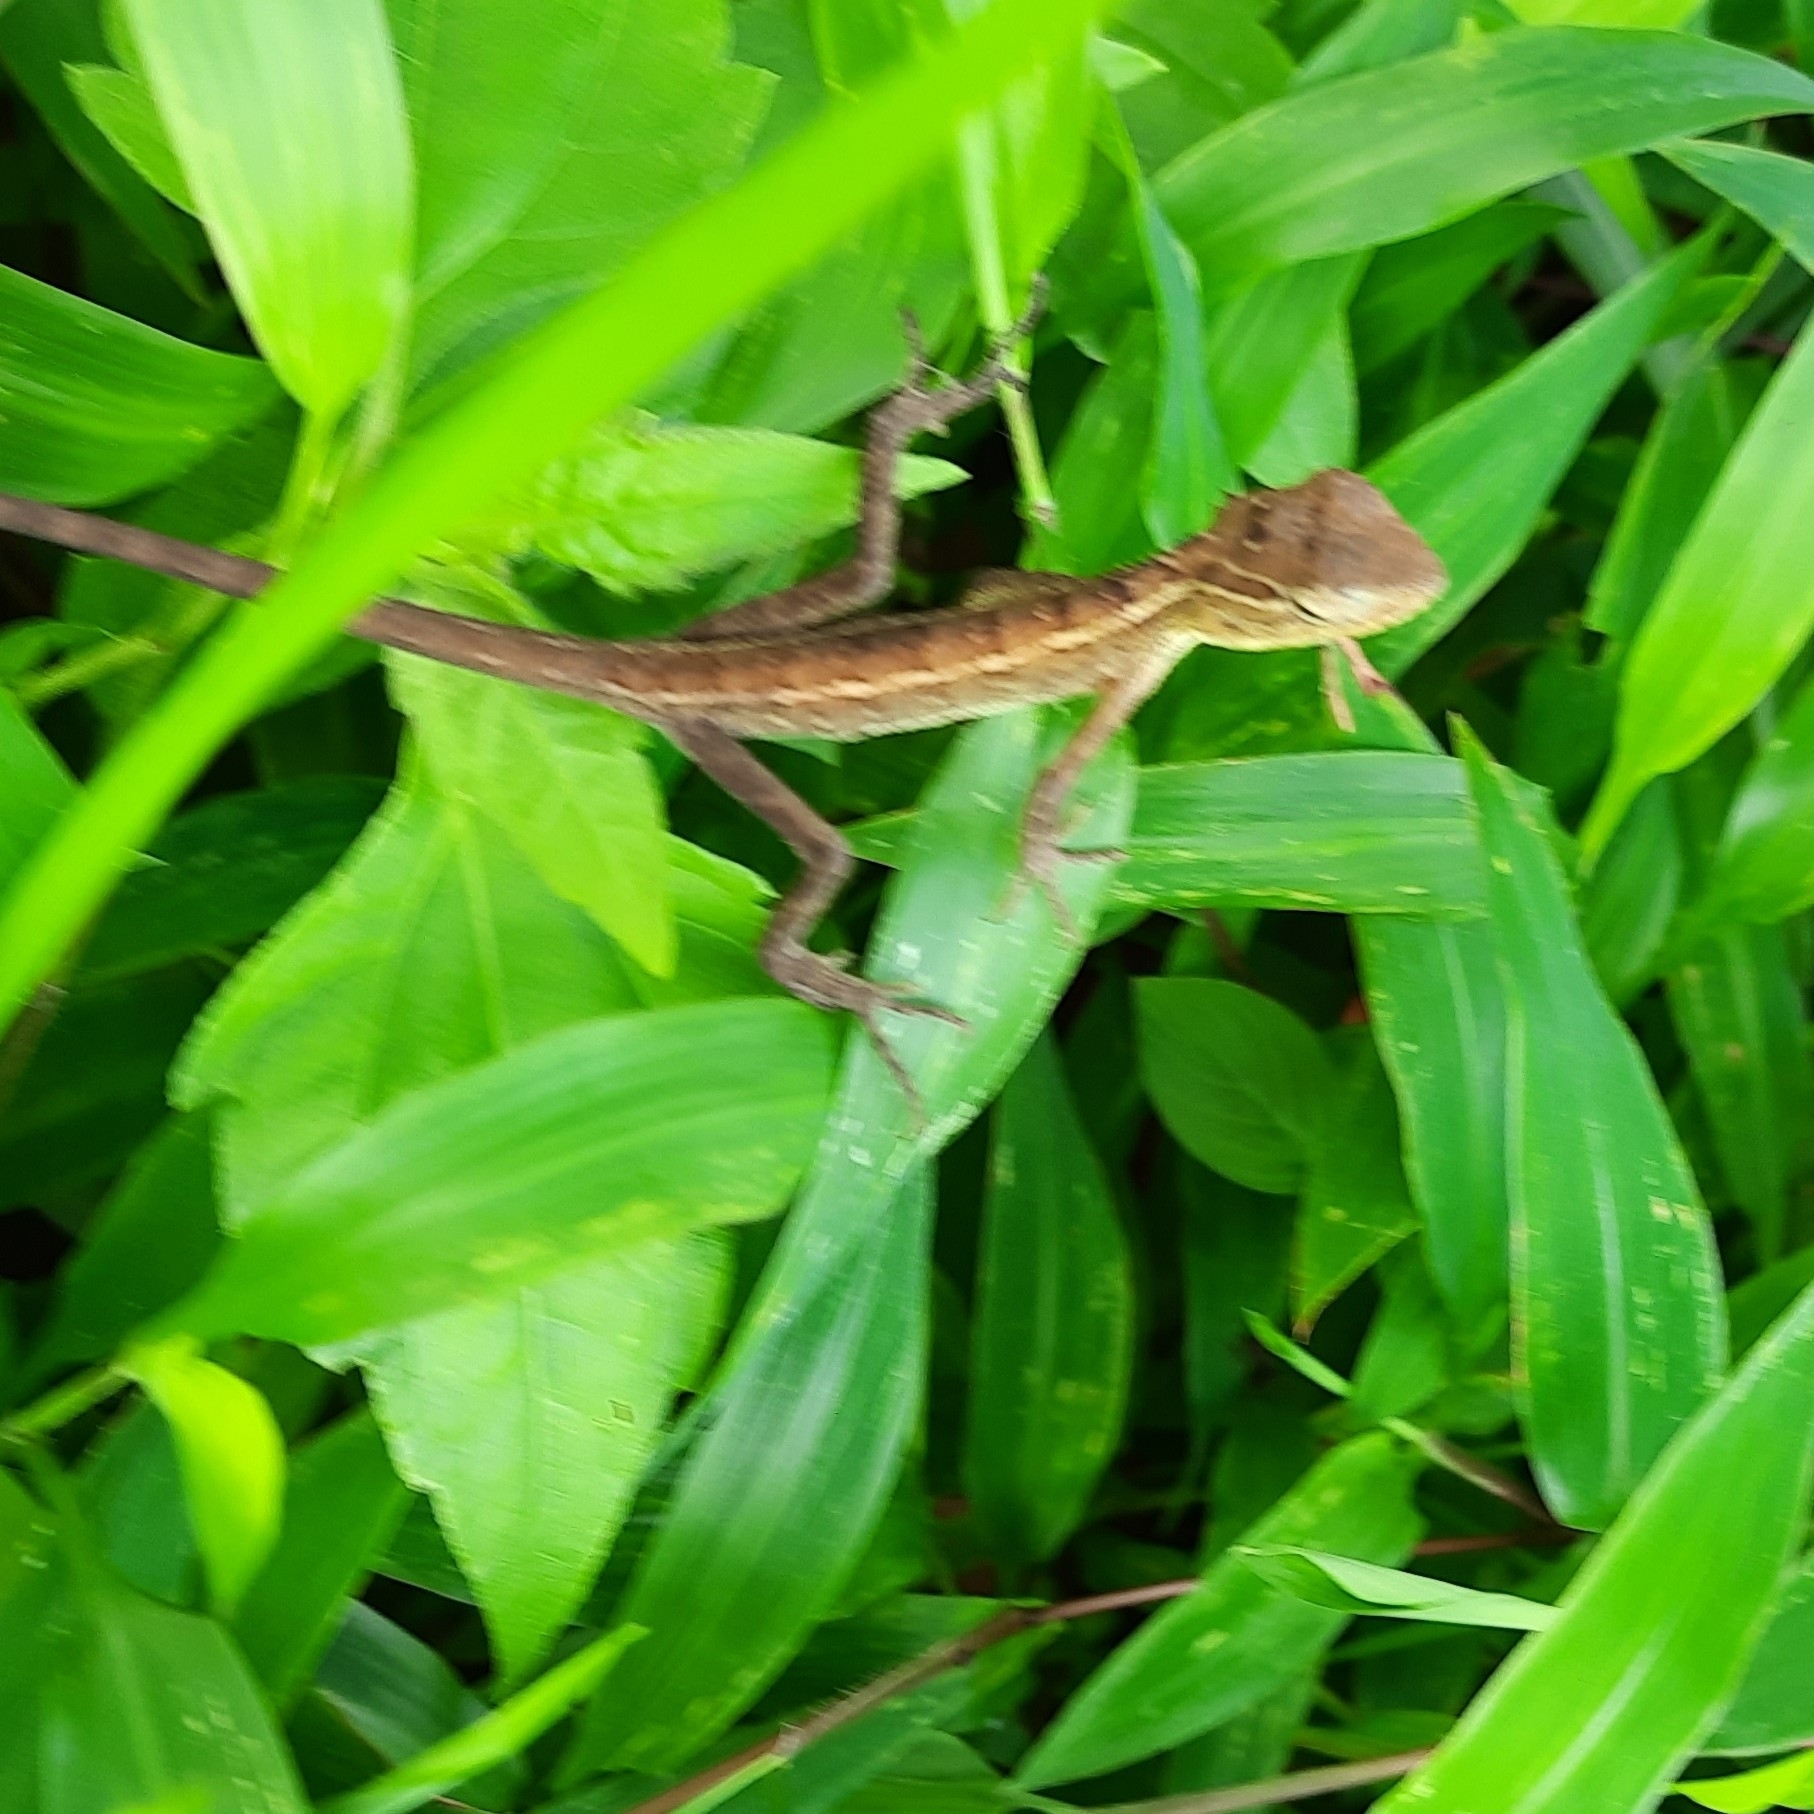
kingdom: Animalia
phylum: Chordata
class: Squamata
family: Agamidae
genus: Calotes
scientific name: Calotes versicolor
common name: Oriental garden lizard
